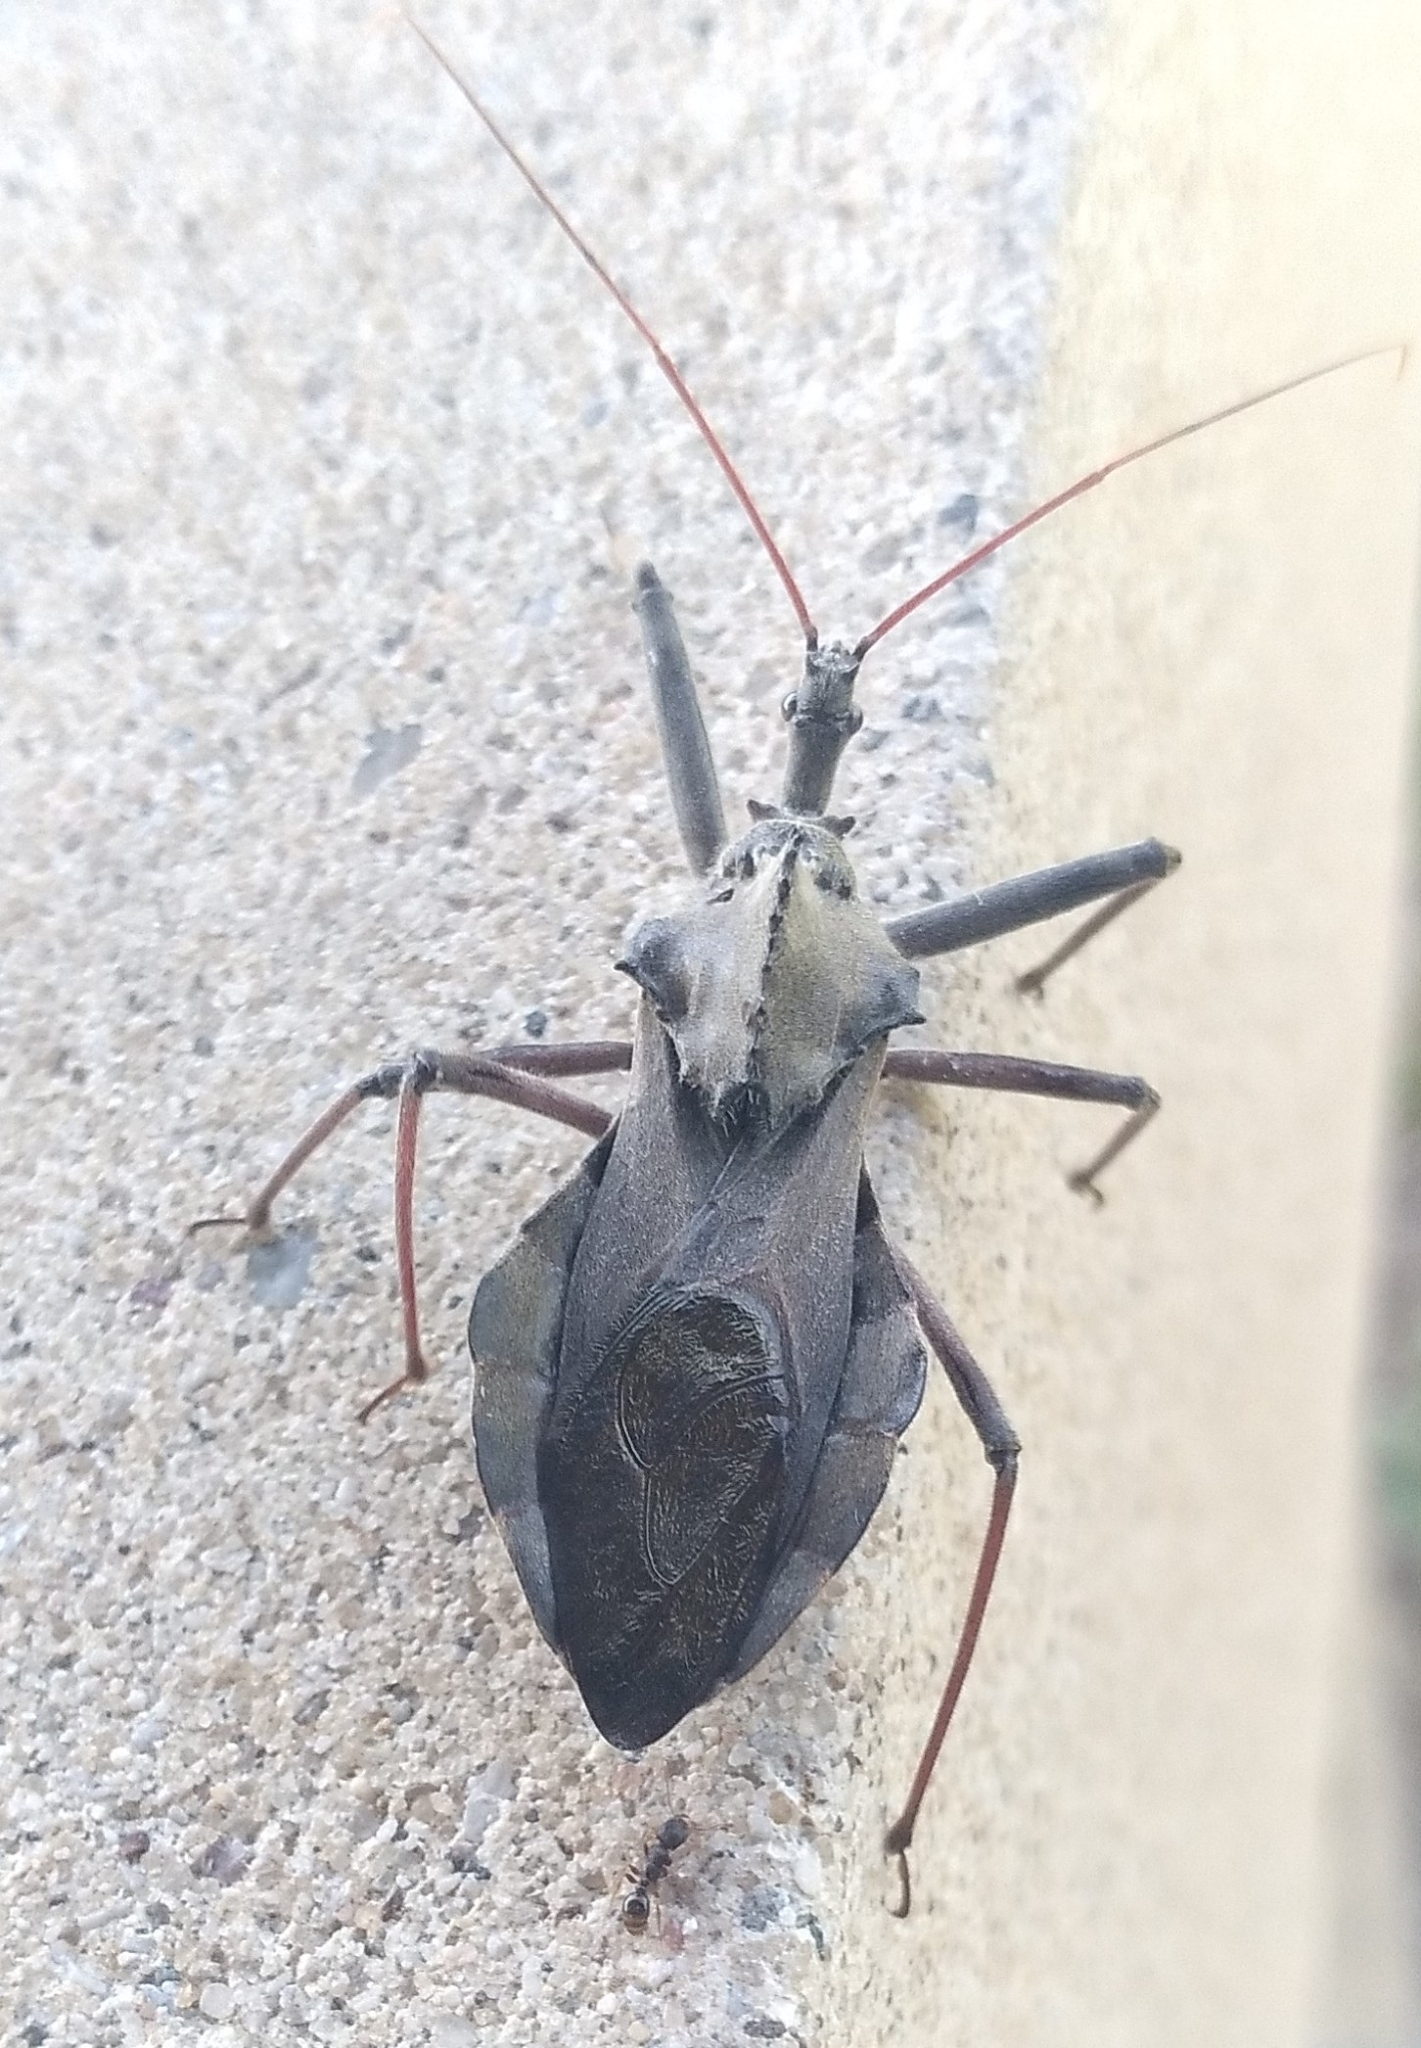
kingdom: Animalia
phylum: Arthropoda
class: Insecta
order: Hemiptera
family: Reduviidae
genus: Arilus
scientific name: Arilus cristatus
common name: North american wheel bug
